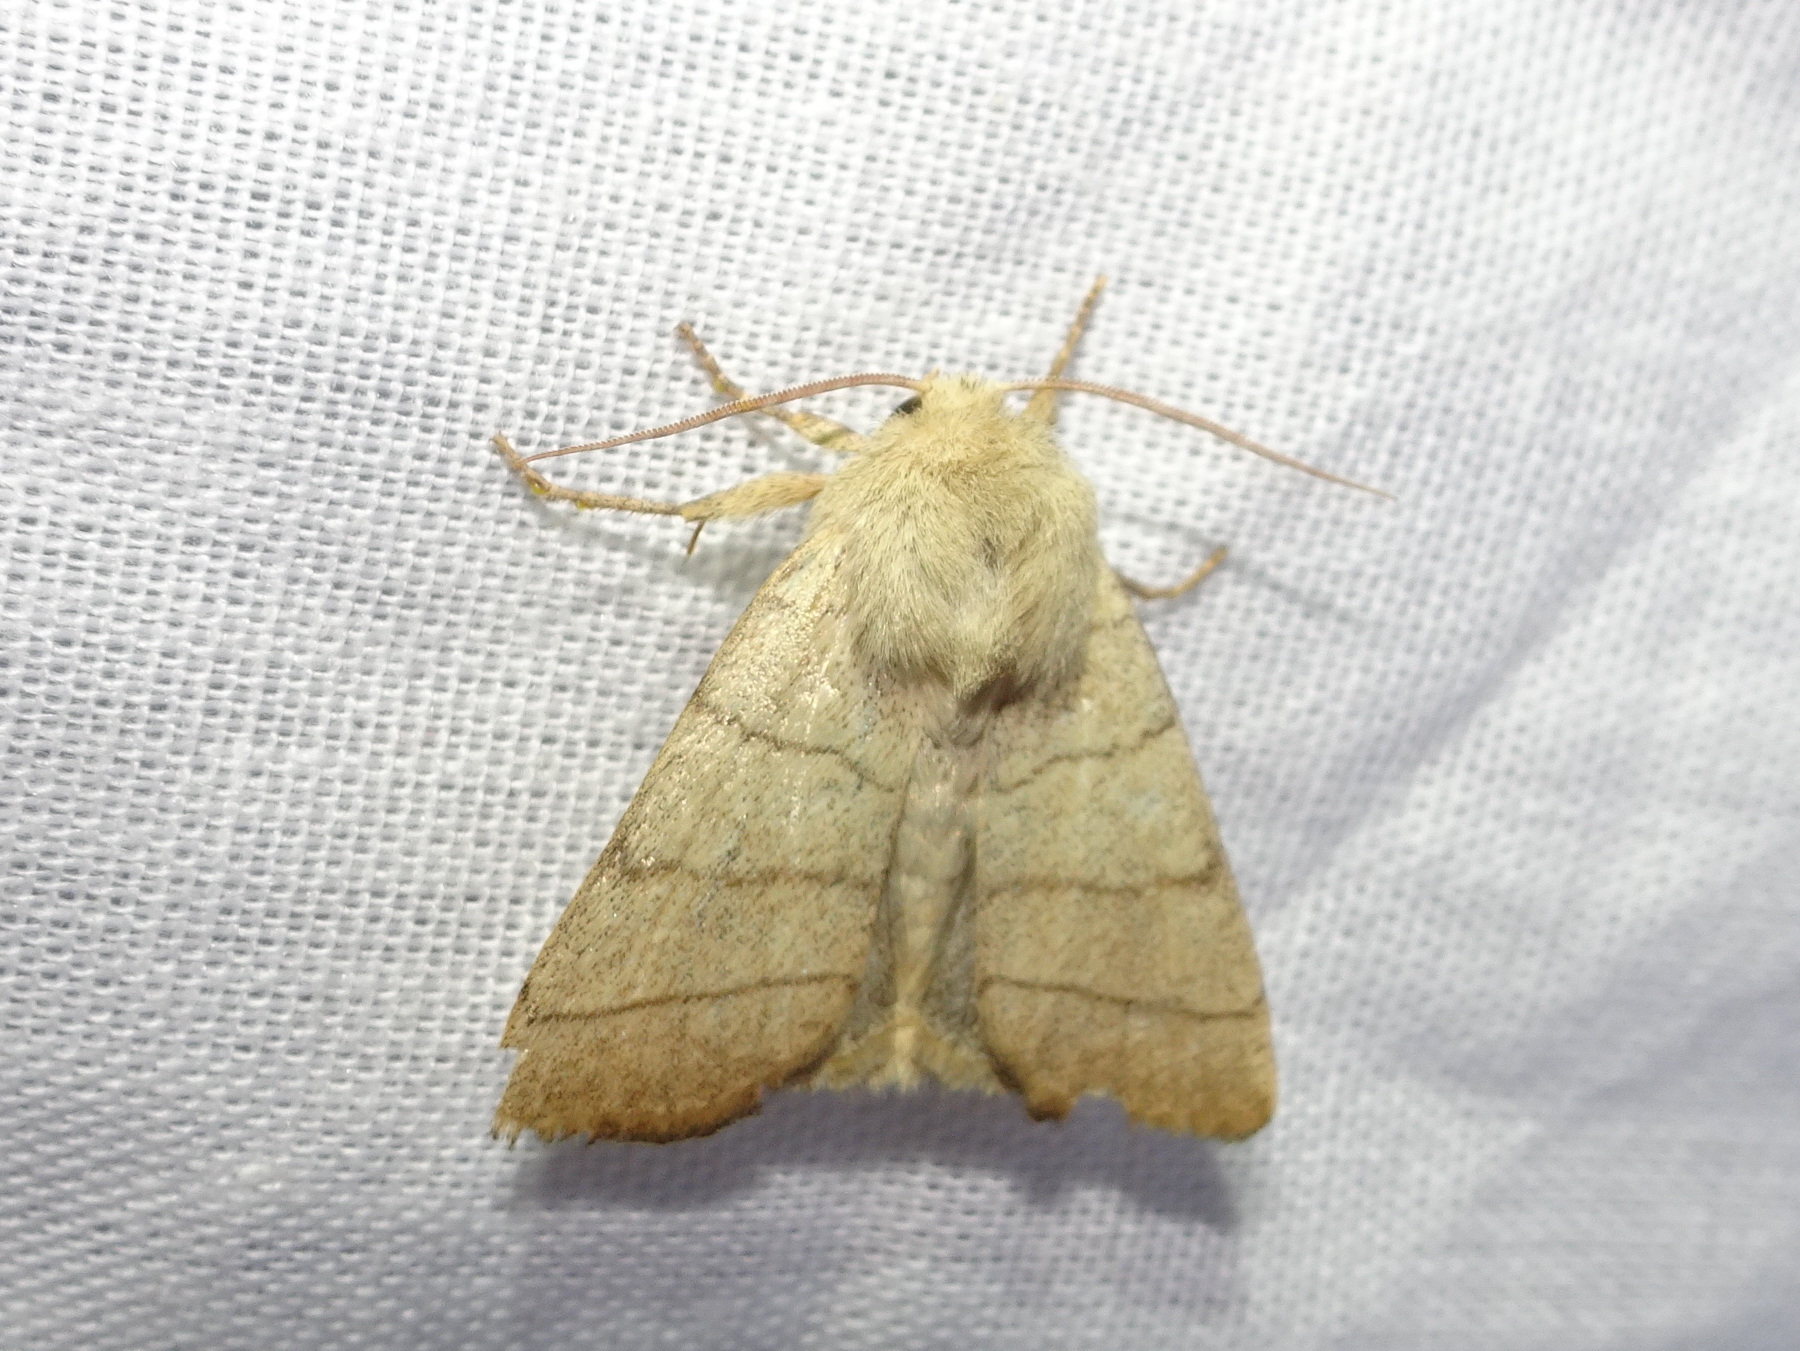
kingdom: Animalia
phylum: Arthropoda
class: Insecta
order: Lepidoptera
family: Noctuidae
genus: Charanyca
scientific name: Charanyca trigrammica
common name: Treble lines
